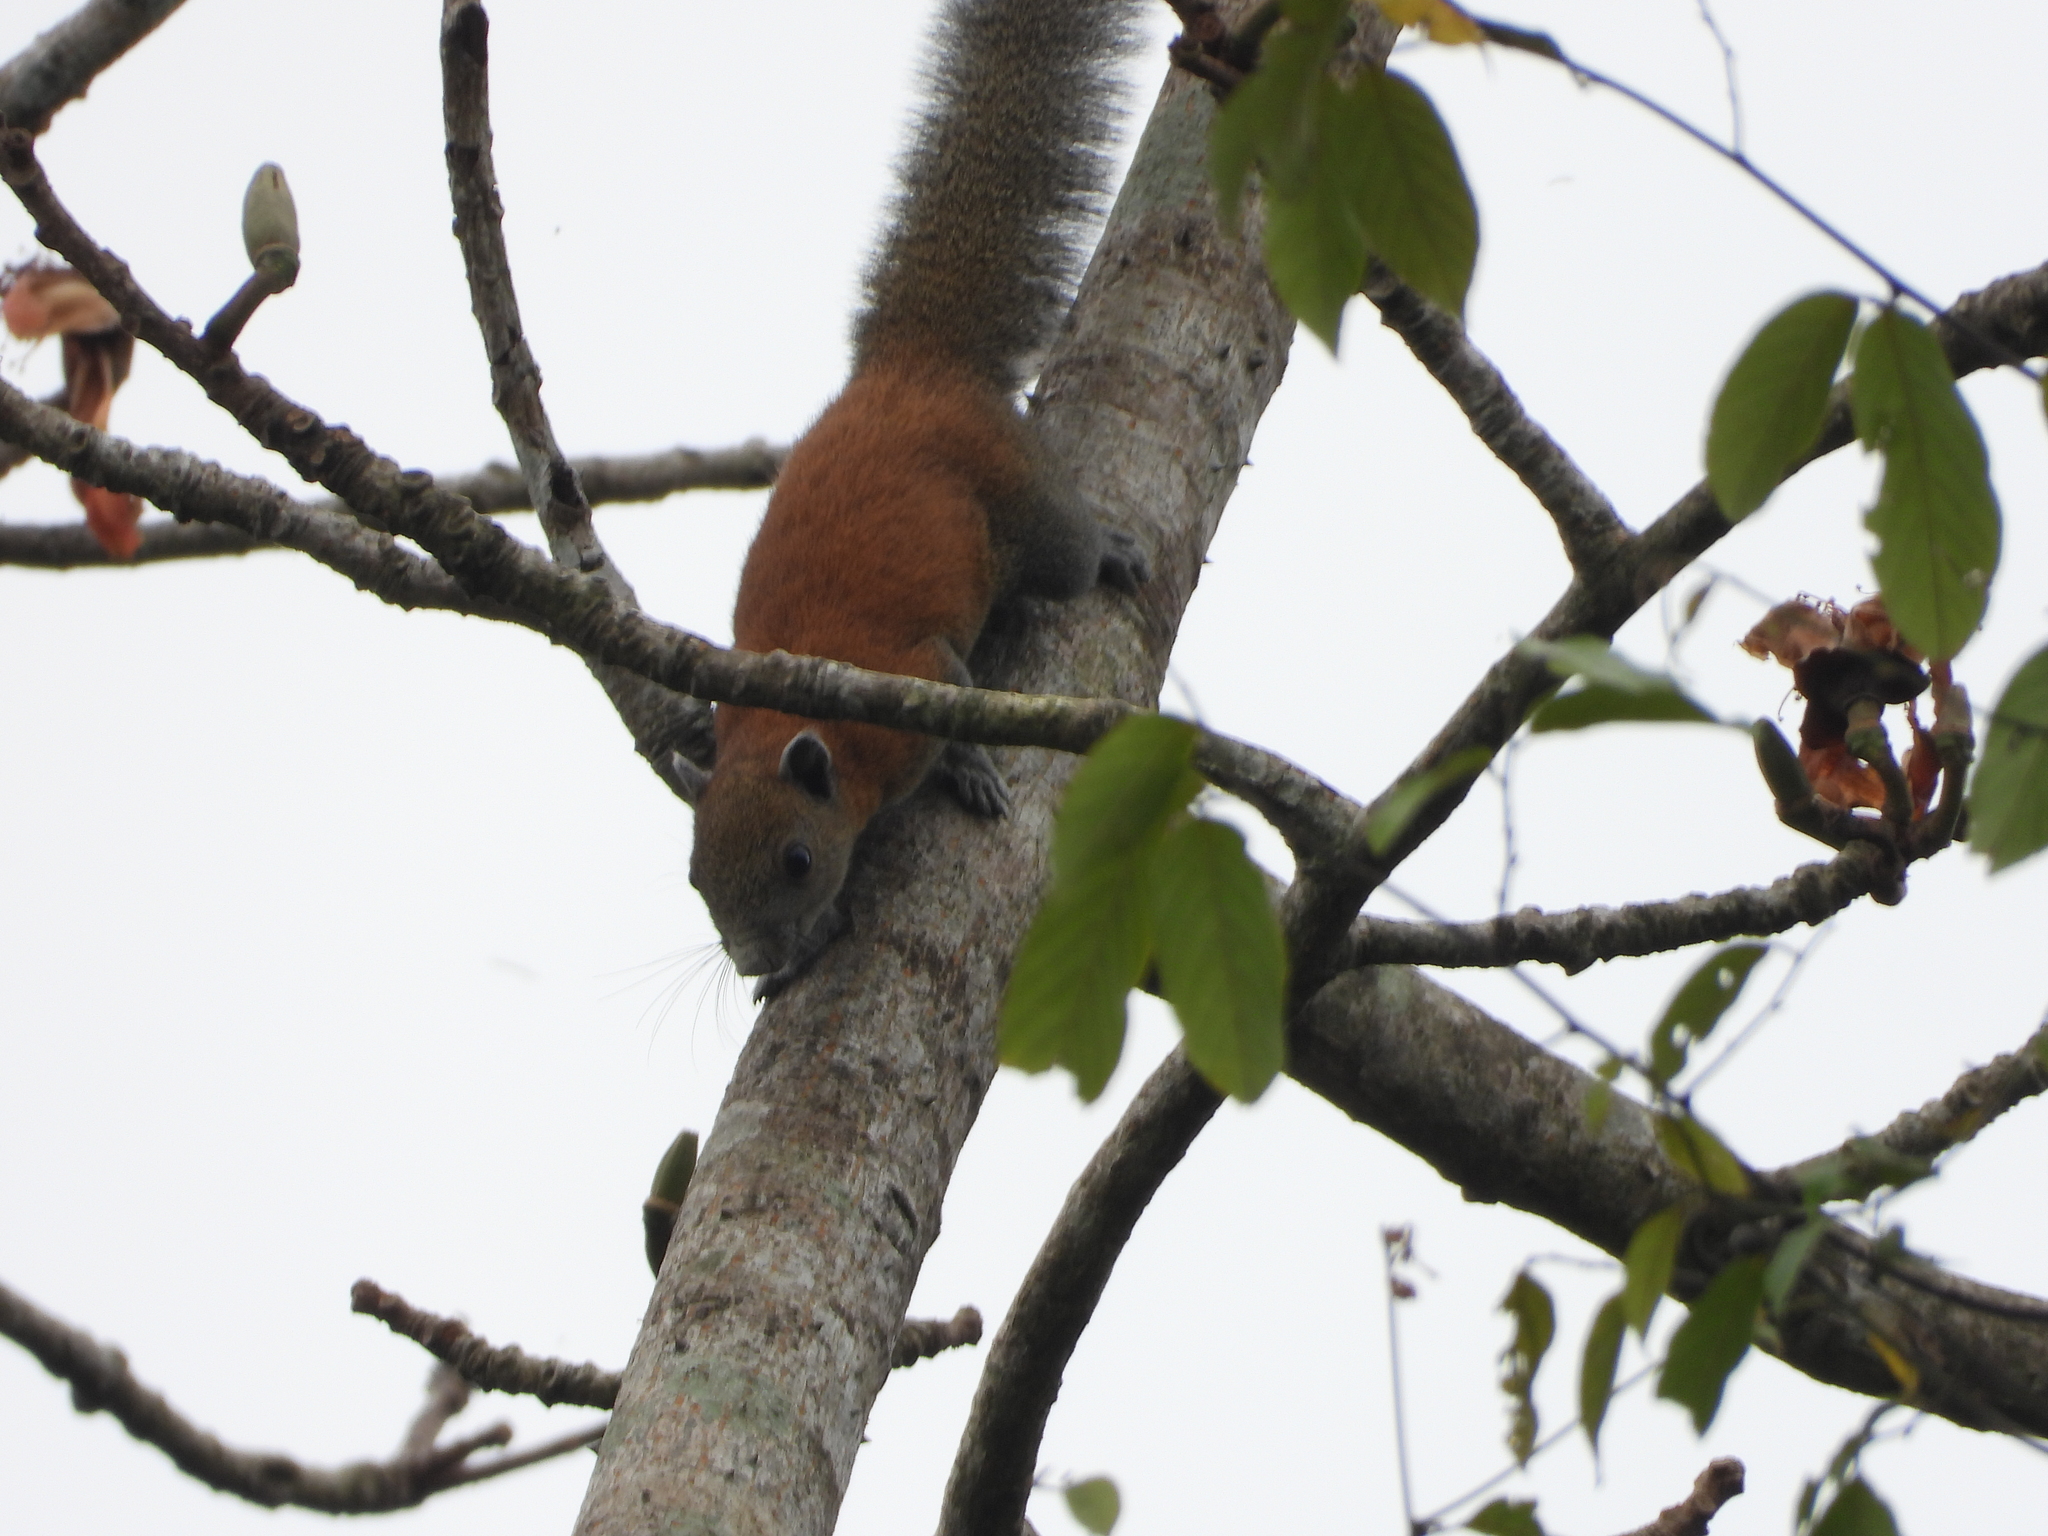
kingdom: Animalia
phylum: Chordata
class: Mammalia
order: Rodentia
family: Sciuridae
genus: Callosciurus
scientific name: Callosciurus caniceps
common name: Gray-bellied squirrel
